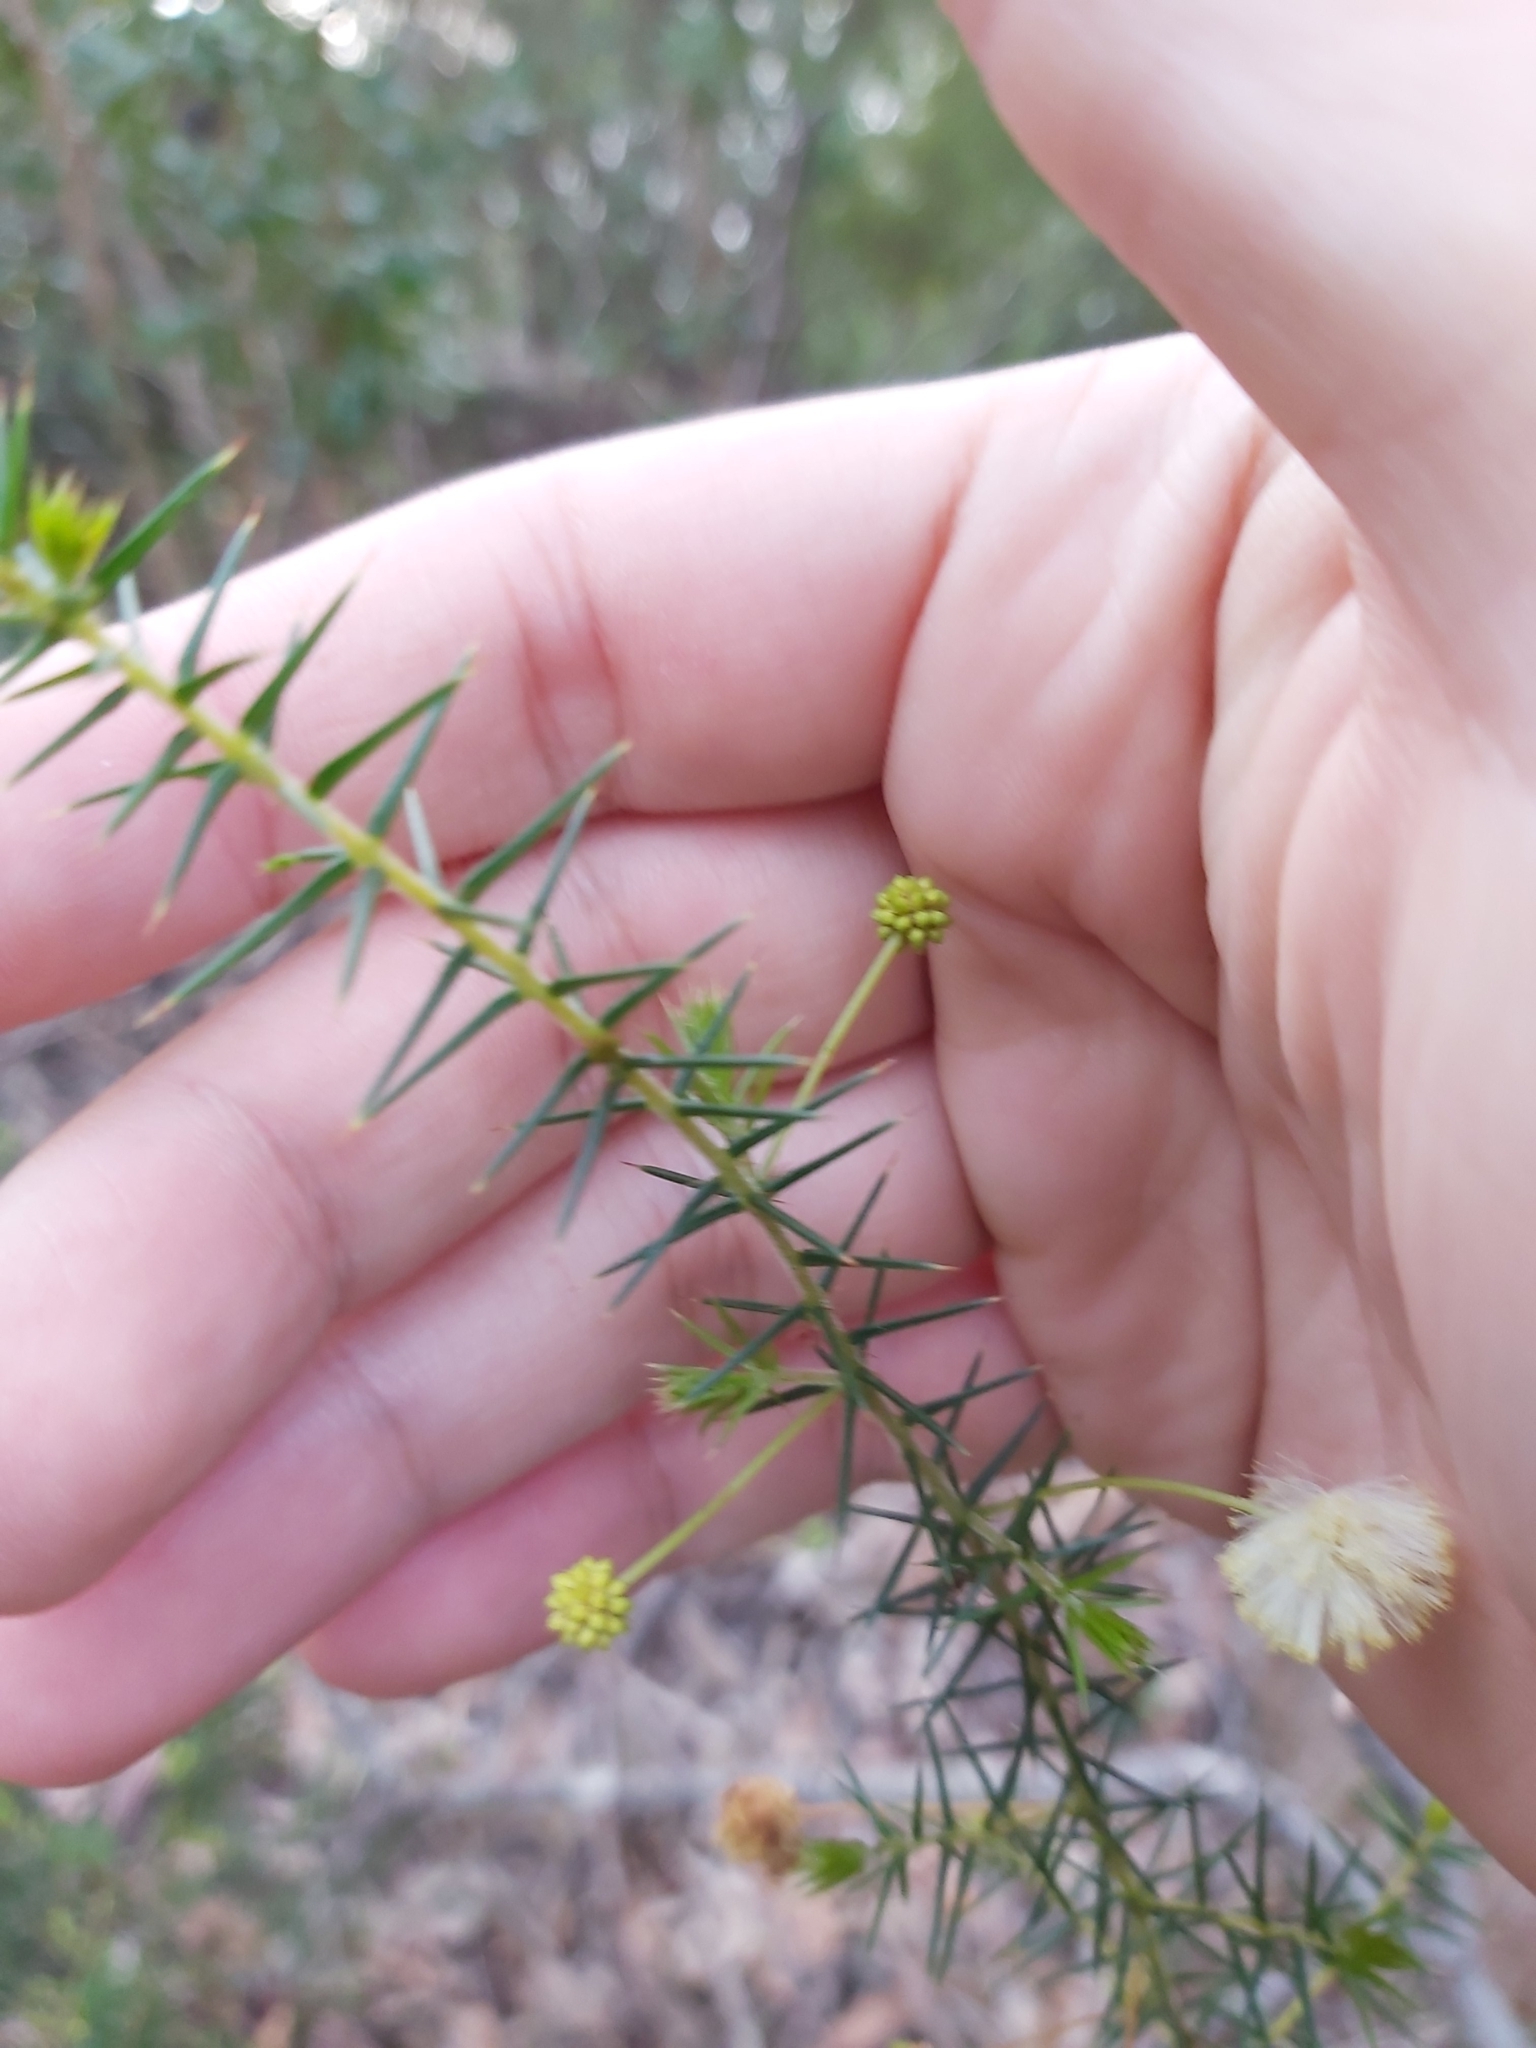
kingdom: Plantae
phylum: Tracheophyta
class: Magnoliopsida
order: Fabales
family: Fabaceae
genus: Acacia
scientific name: Acacia ulicifolia
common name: Juniper wattle
